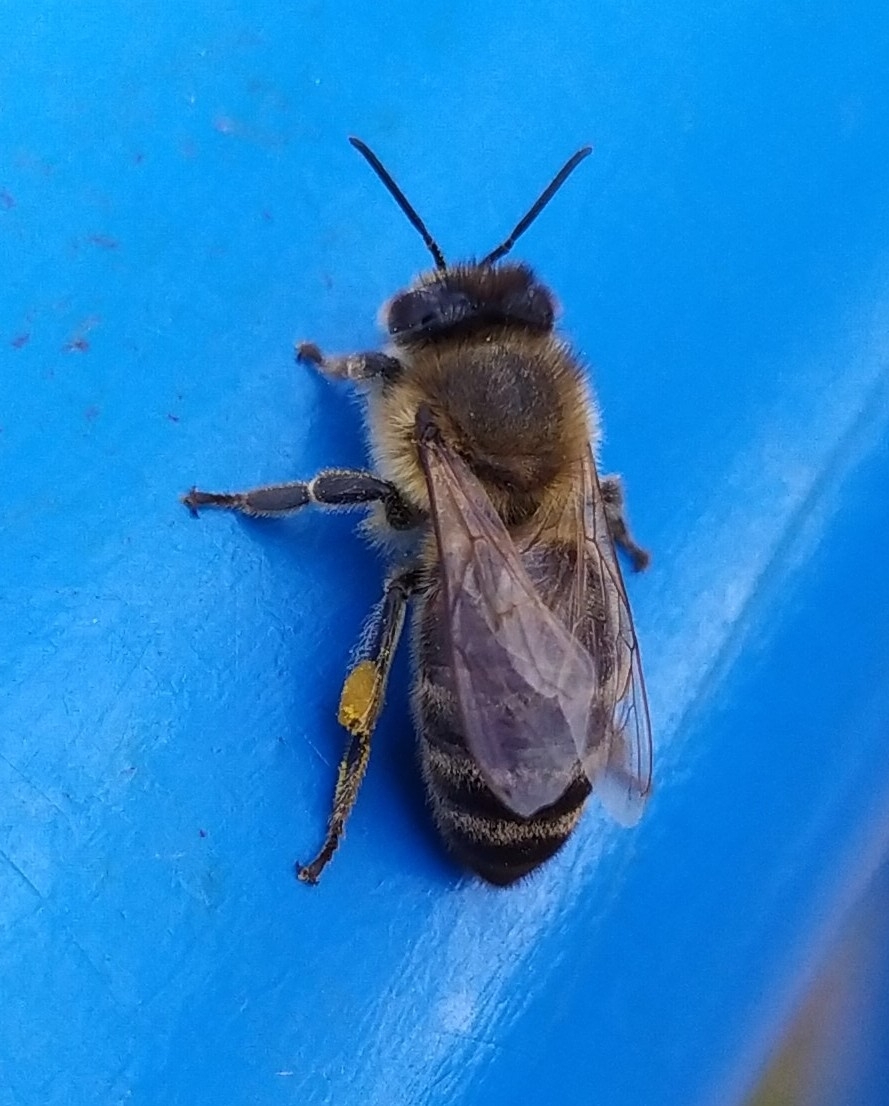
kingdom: Animalia
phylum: Arthropoda
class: Insecta
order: Hymenoptera
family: Apidae
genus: Apis
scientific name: Apis mellifera
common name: Honey bee
